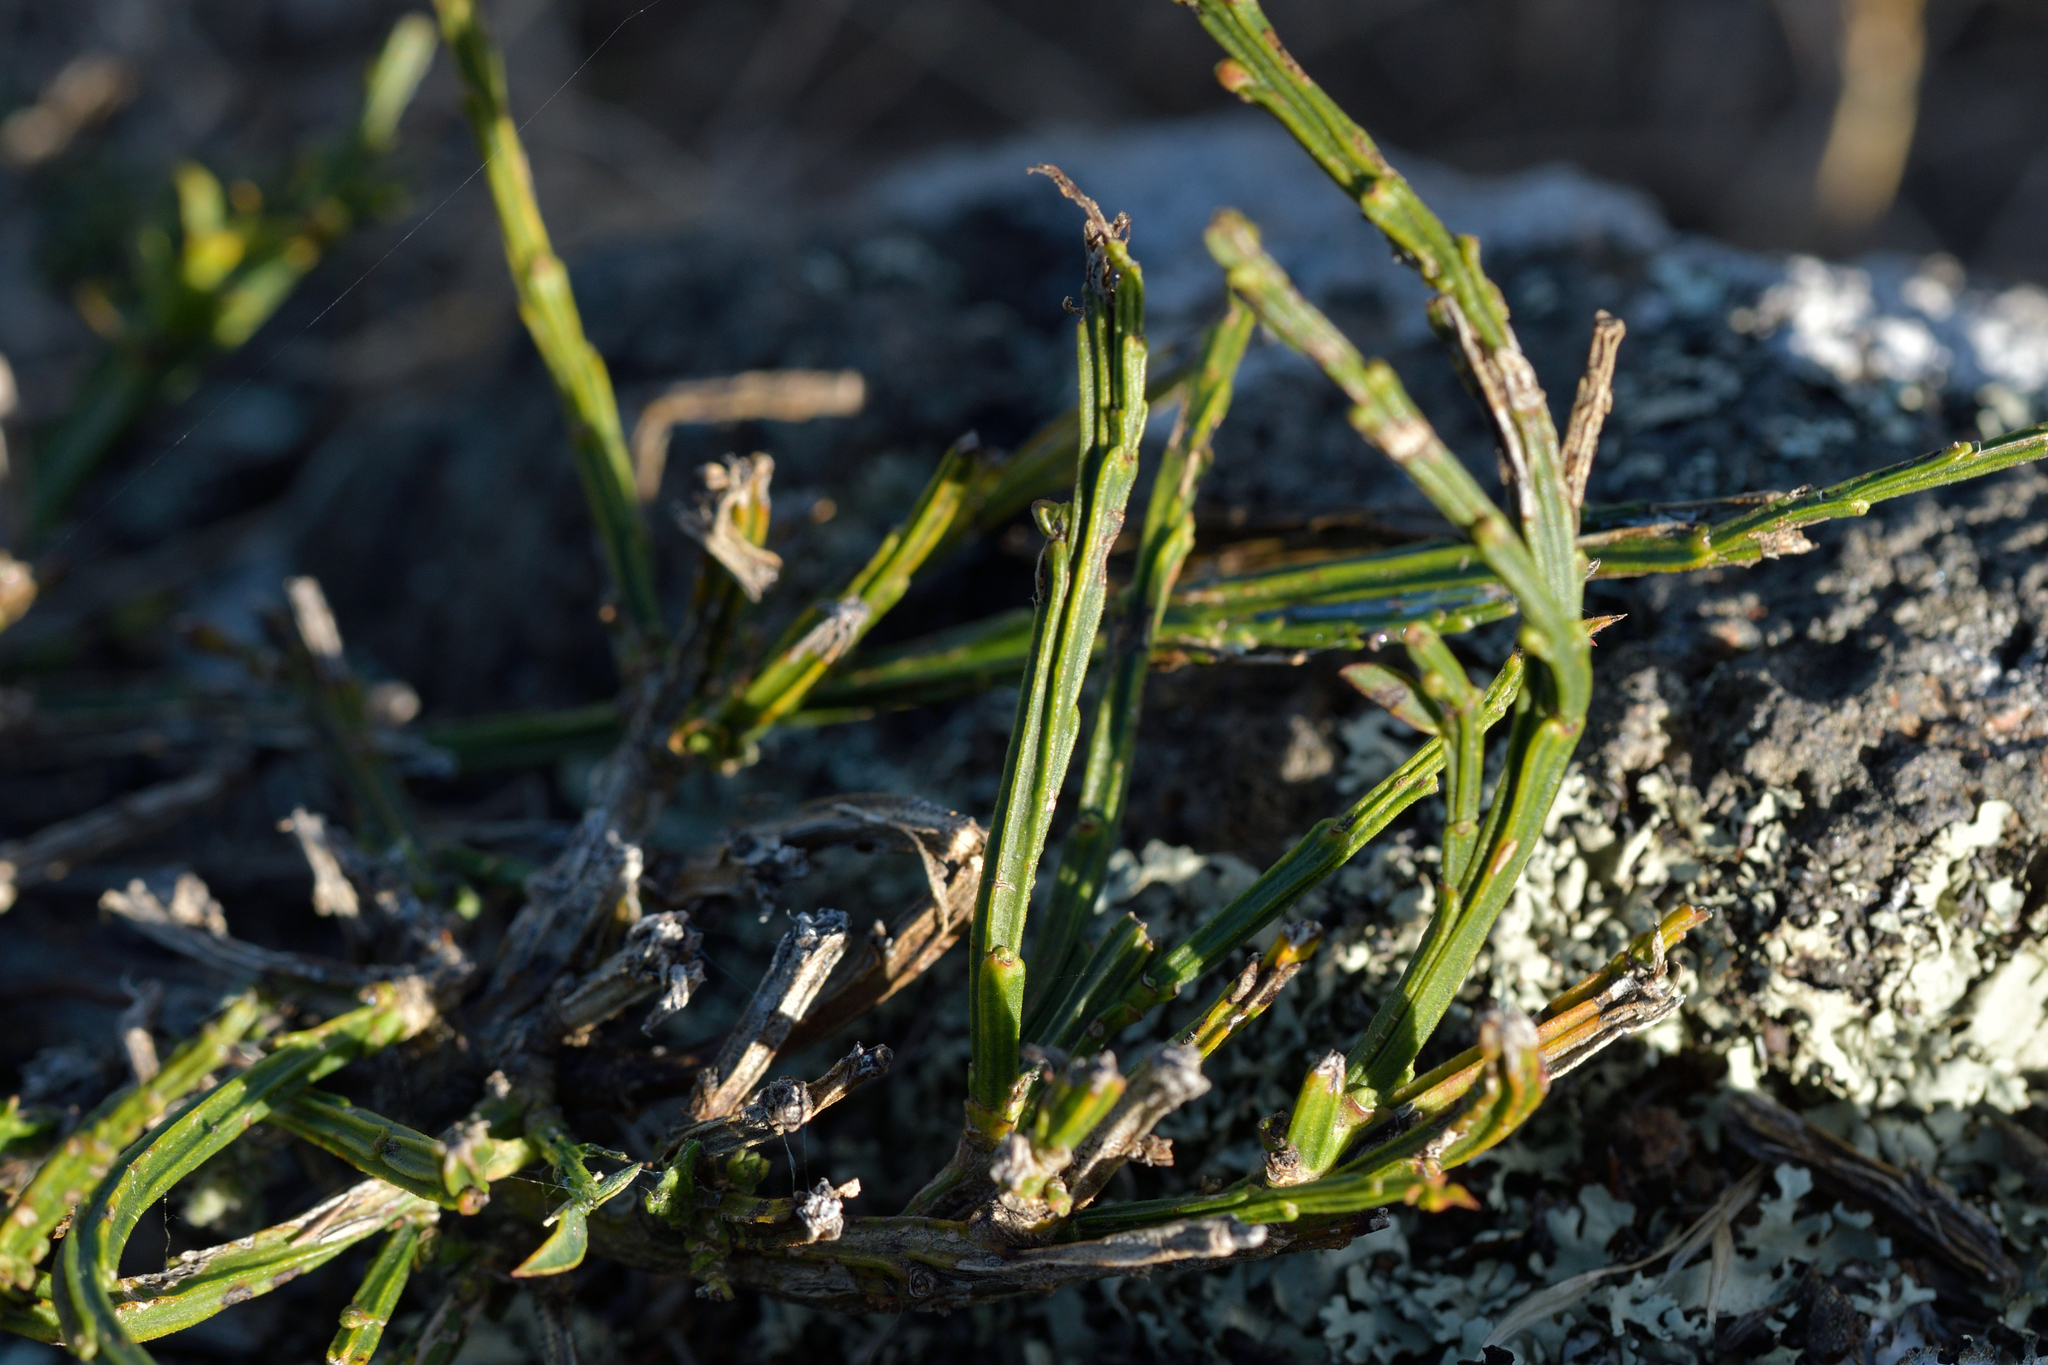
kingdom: Plantae
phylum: Tracheophyta
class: Magnoliopsida
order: Fabales
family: Fabaceae
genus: Cytisus
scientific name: Cytisus scoparius
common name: Scotch broom
